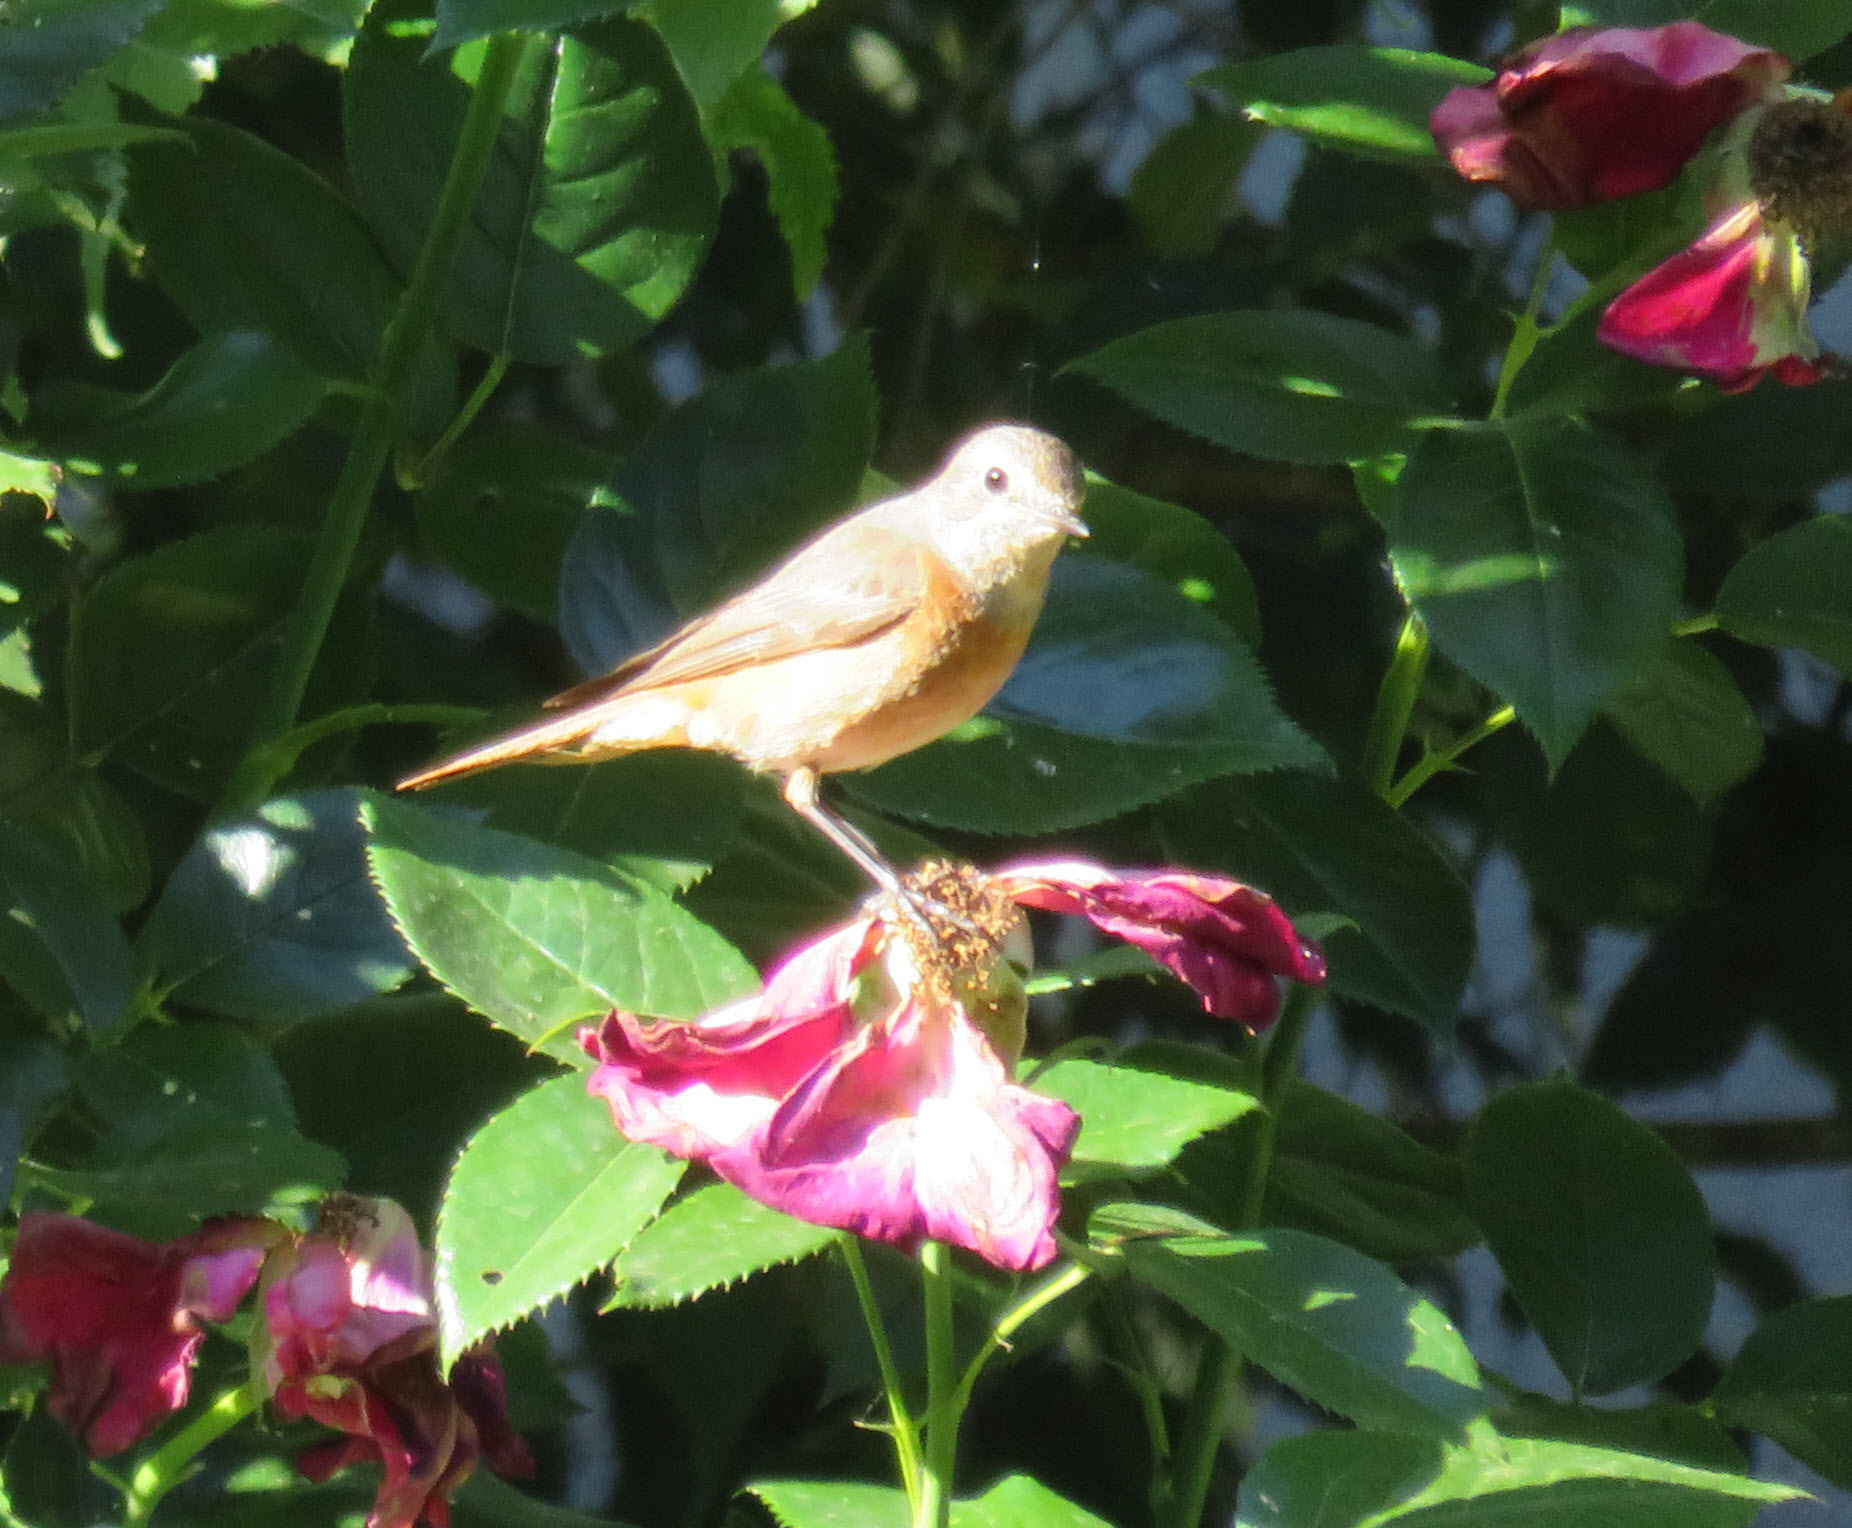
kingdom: Animalia
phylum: Chordata
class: Aves
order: Passeriformes
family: Muscicapidae
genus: Phoenicurus
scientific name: Phoenicurus phoenicurus
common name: Common redstart
